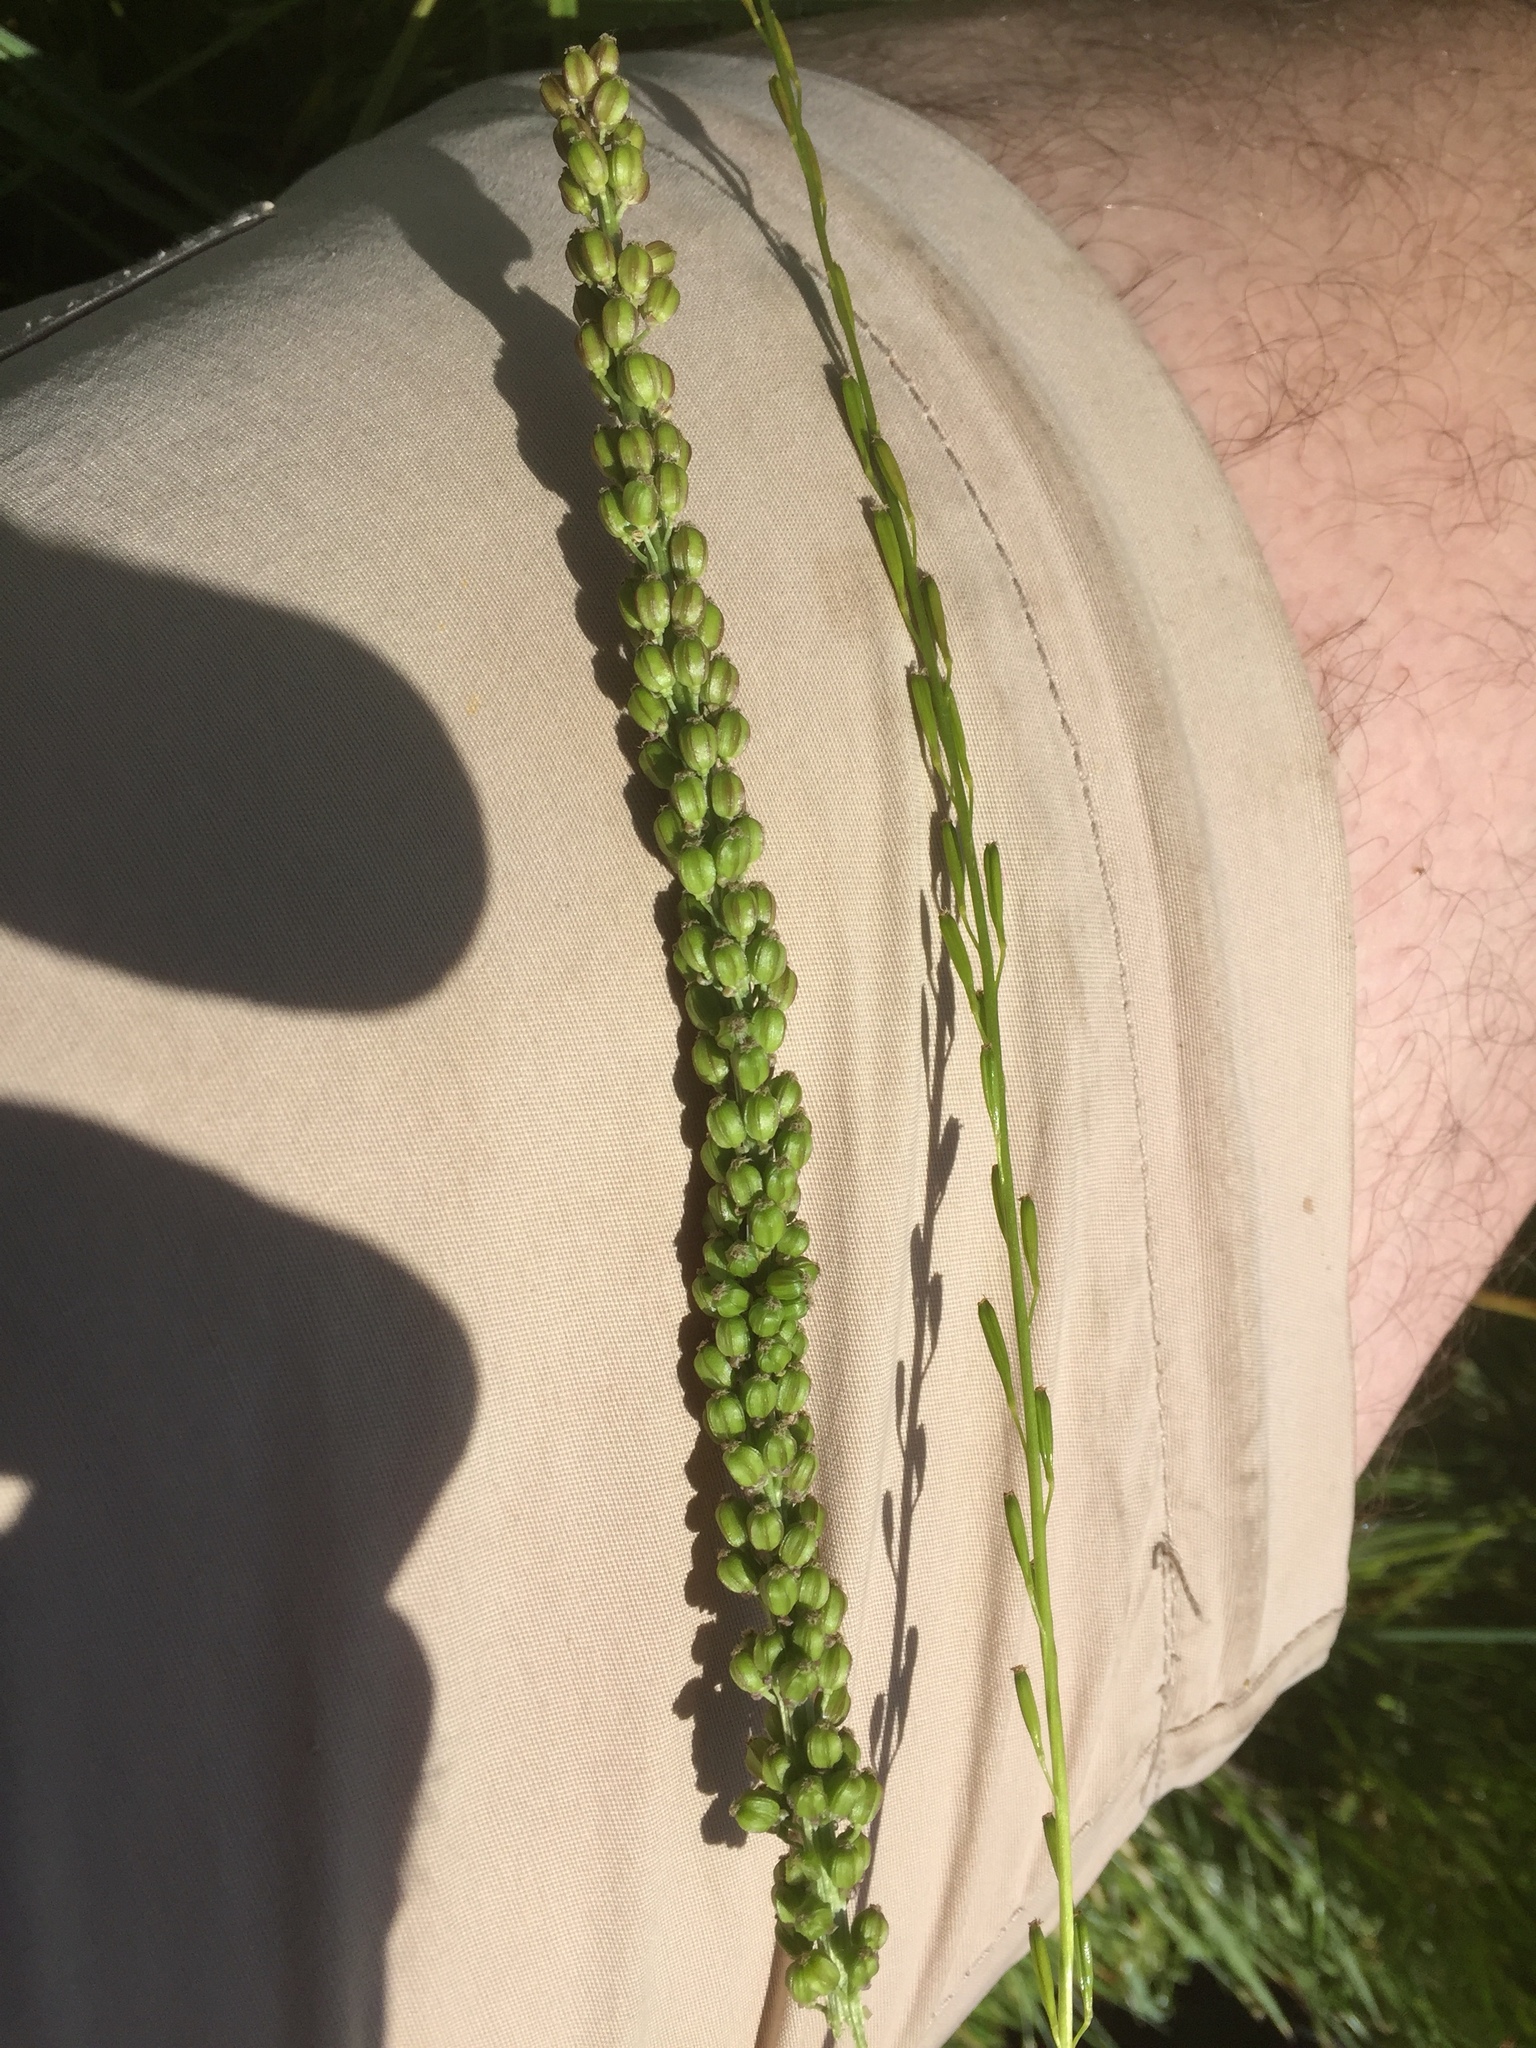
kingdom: Plantae
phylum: Tracheophyta
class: Liliopsida
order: Alismatales
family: Juncaginaceae
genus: Triglochin
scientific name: Triglochin palustris
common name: Marsh arrowgrass
